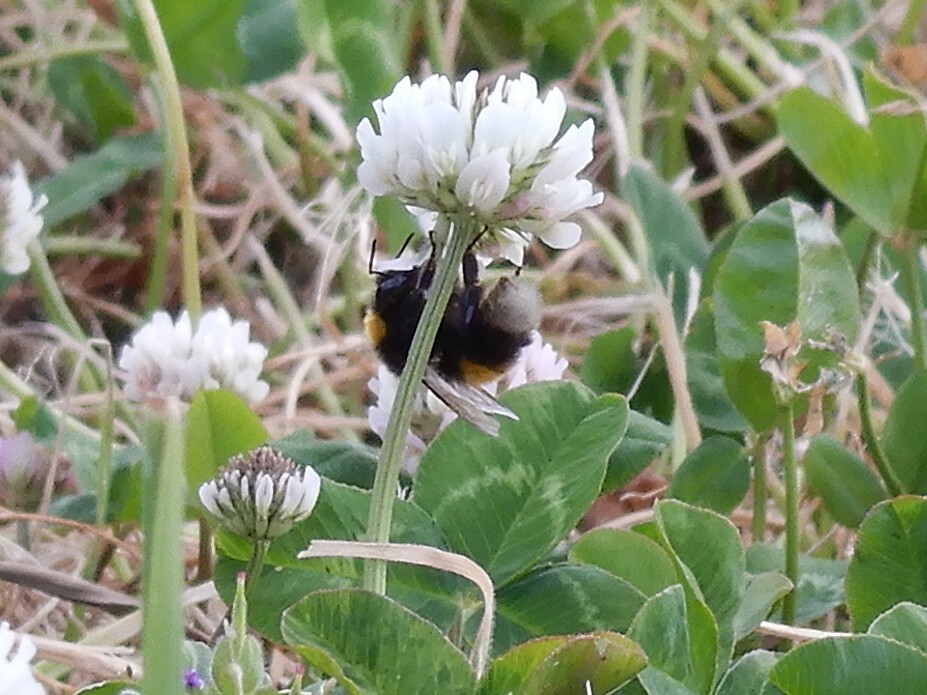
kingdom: Animalia
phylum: Arthropoda
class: Insecta
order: Hymenoptera
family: Apidae
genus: Bombus
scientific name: Bombus terrestris
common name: Buff-tailed bumblebee
